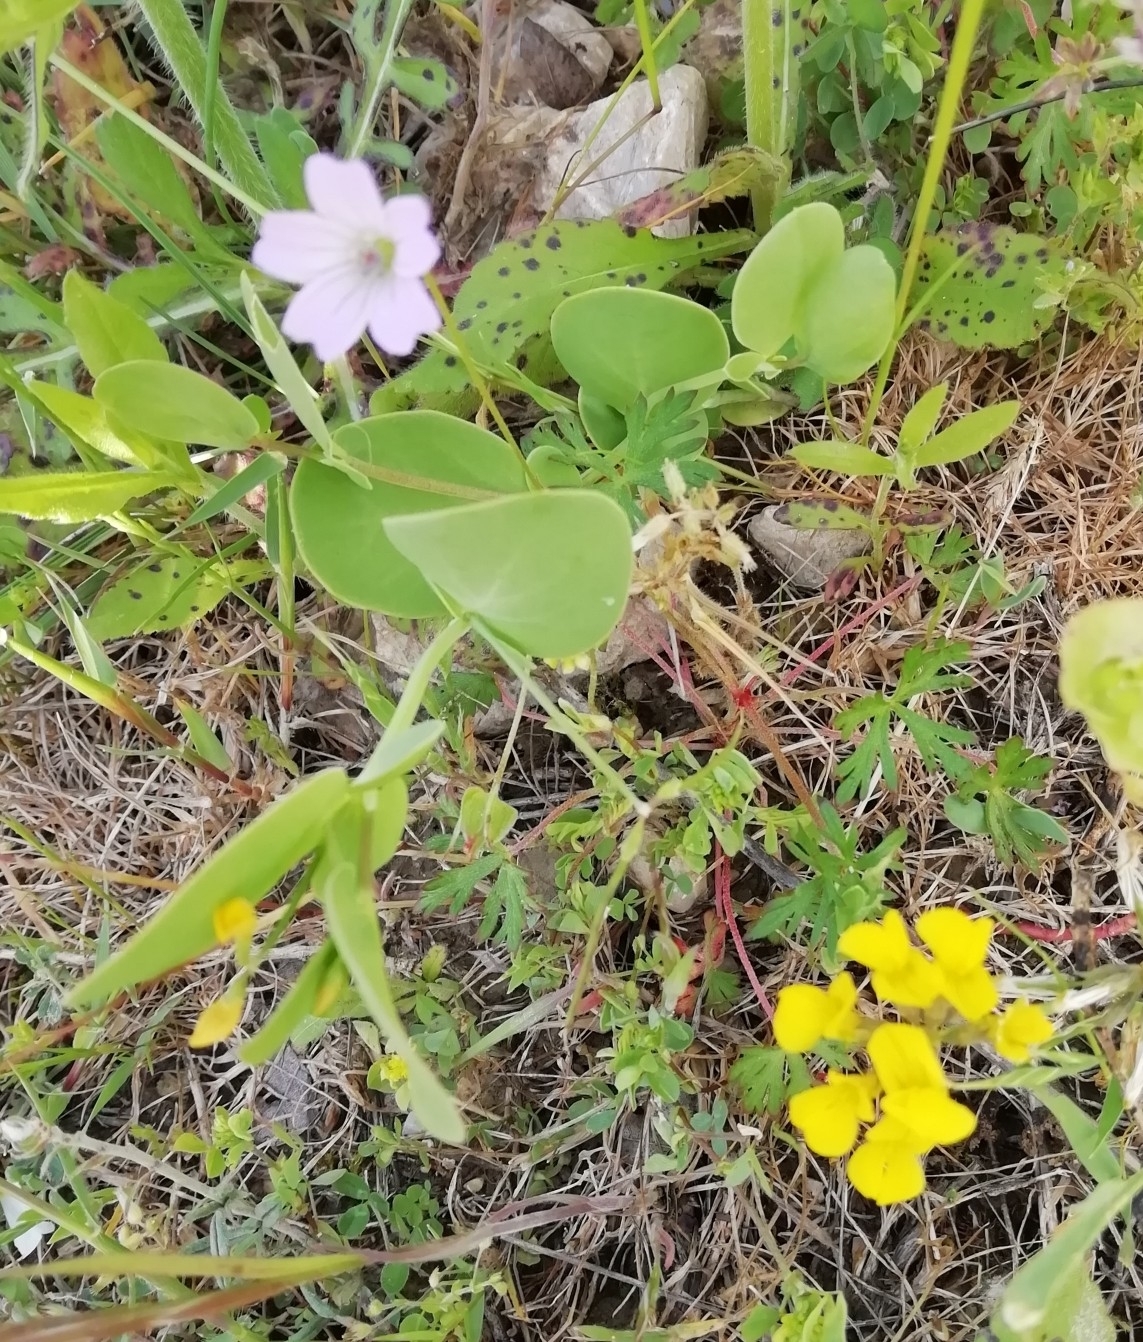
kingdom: Plantae
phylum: Tracheophyta
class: Magnoliopsida
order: Fabales
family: Fabaceae
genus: Coronilla
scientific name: Coronilla scorpioides
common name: Annual scorpion-vetch
